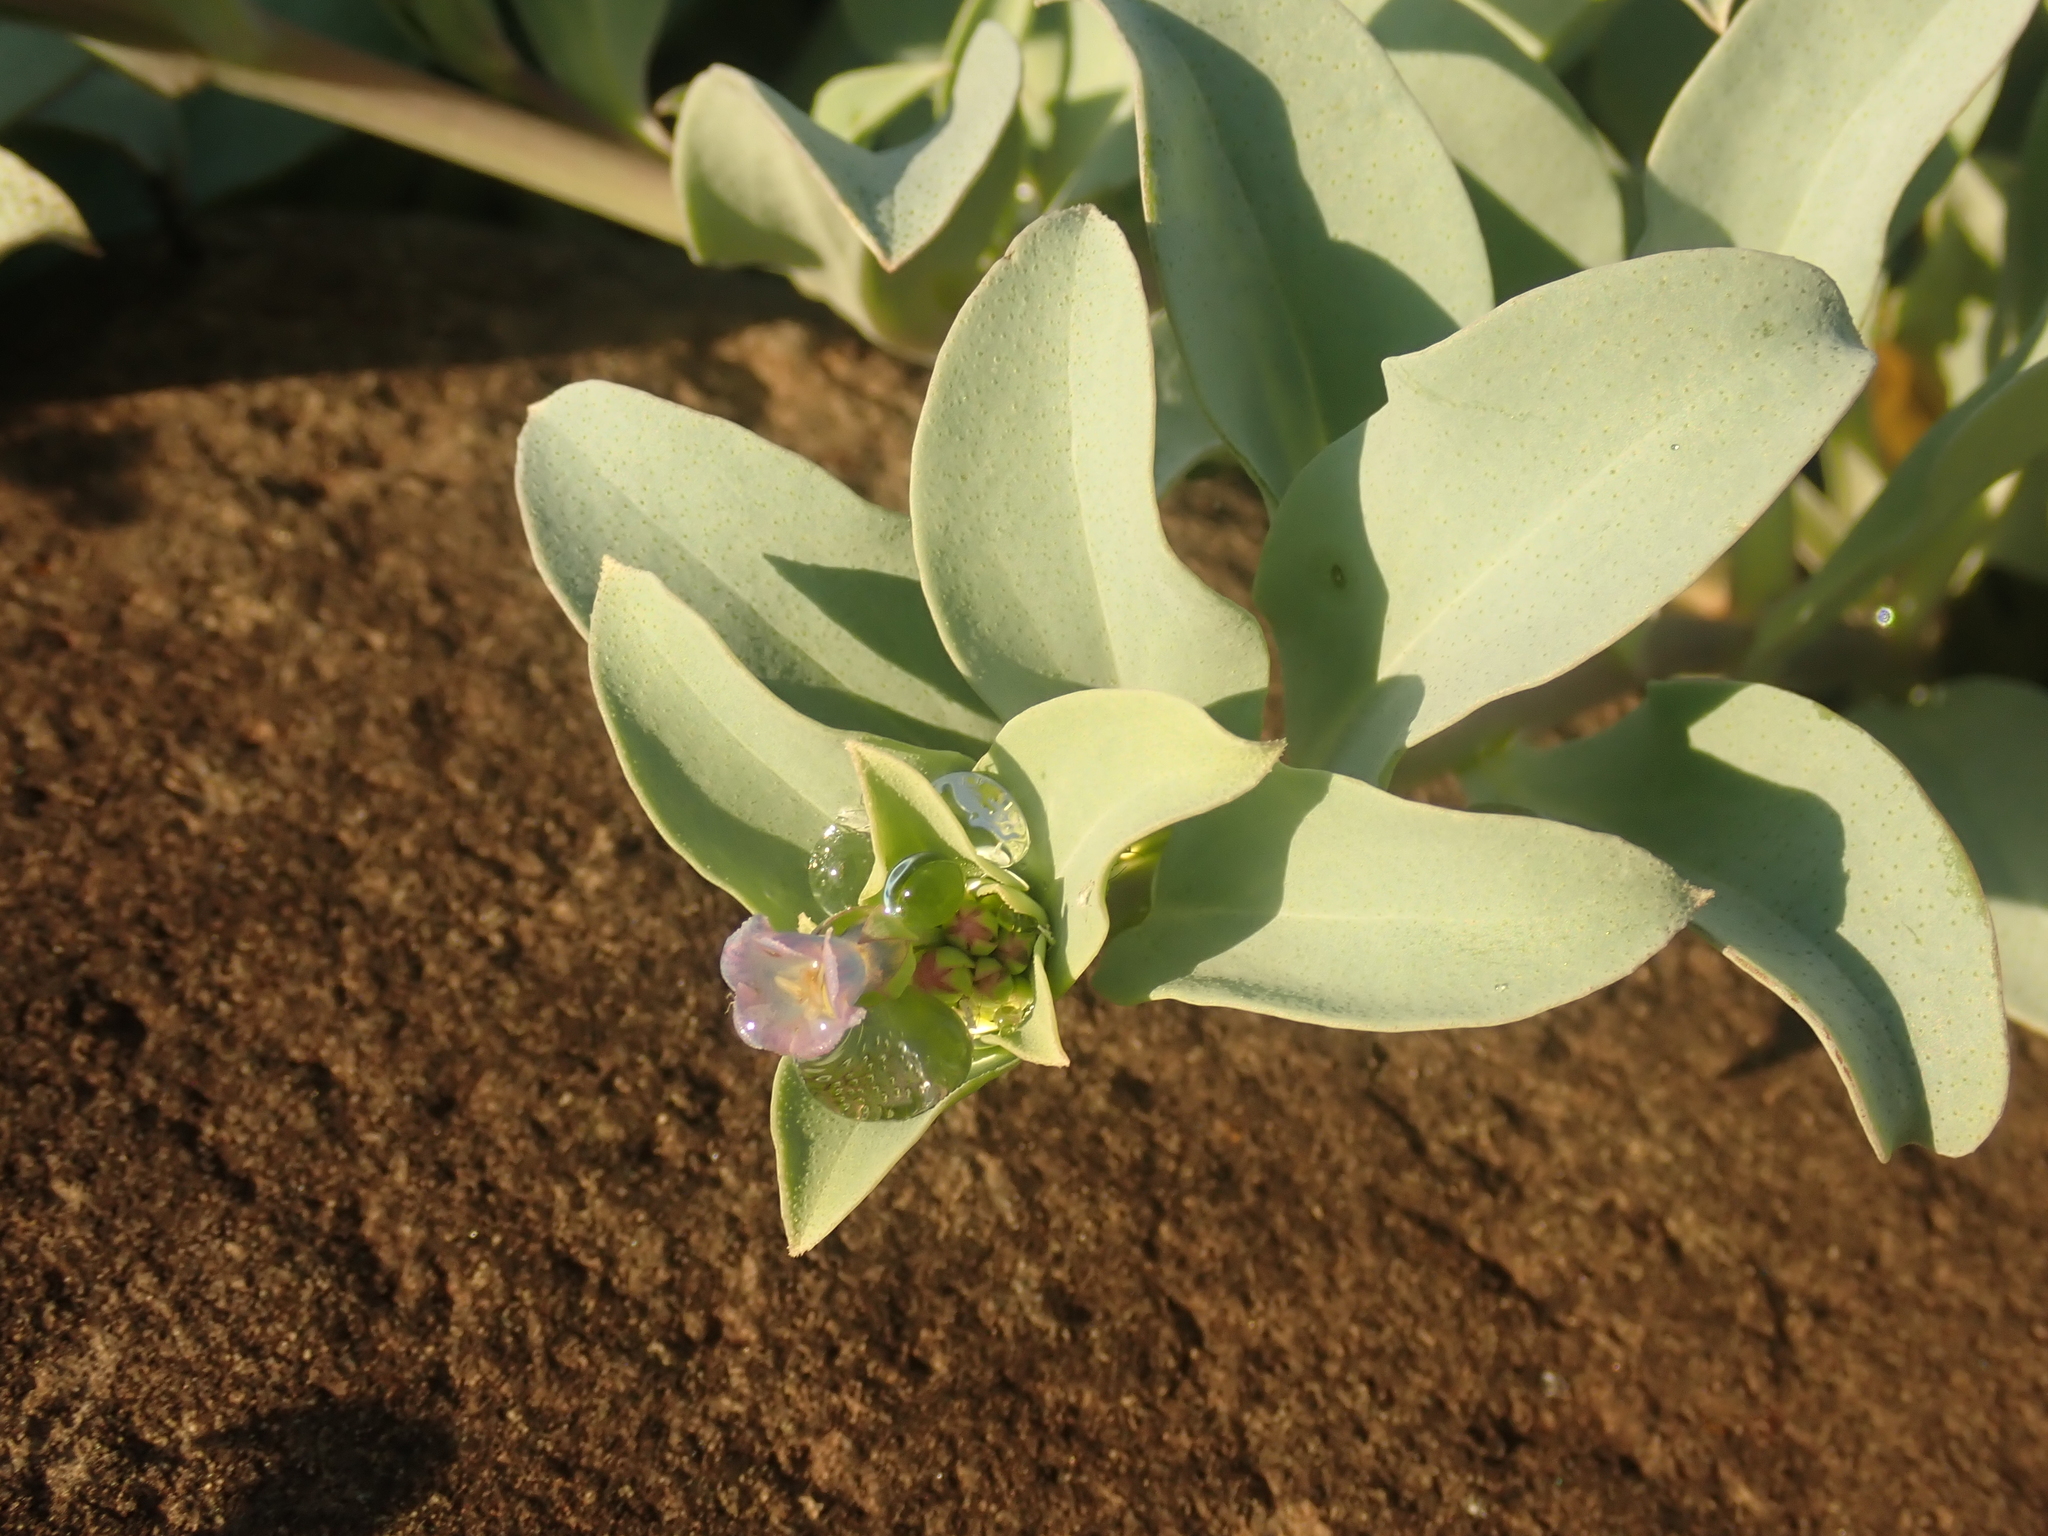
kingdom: Plantae
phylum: Tracheophyta
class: Magnoliopsida
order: Boraginales
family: Boraginaceae
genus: Mertensia
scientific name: Mertensia maritima
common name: Oysterplant
